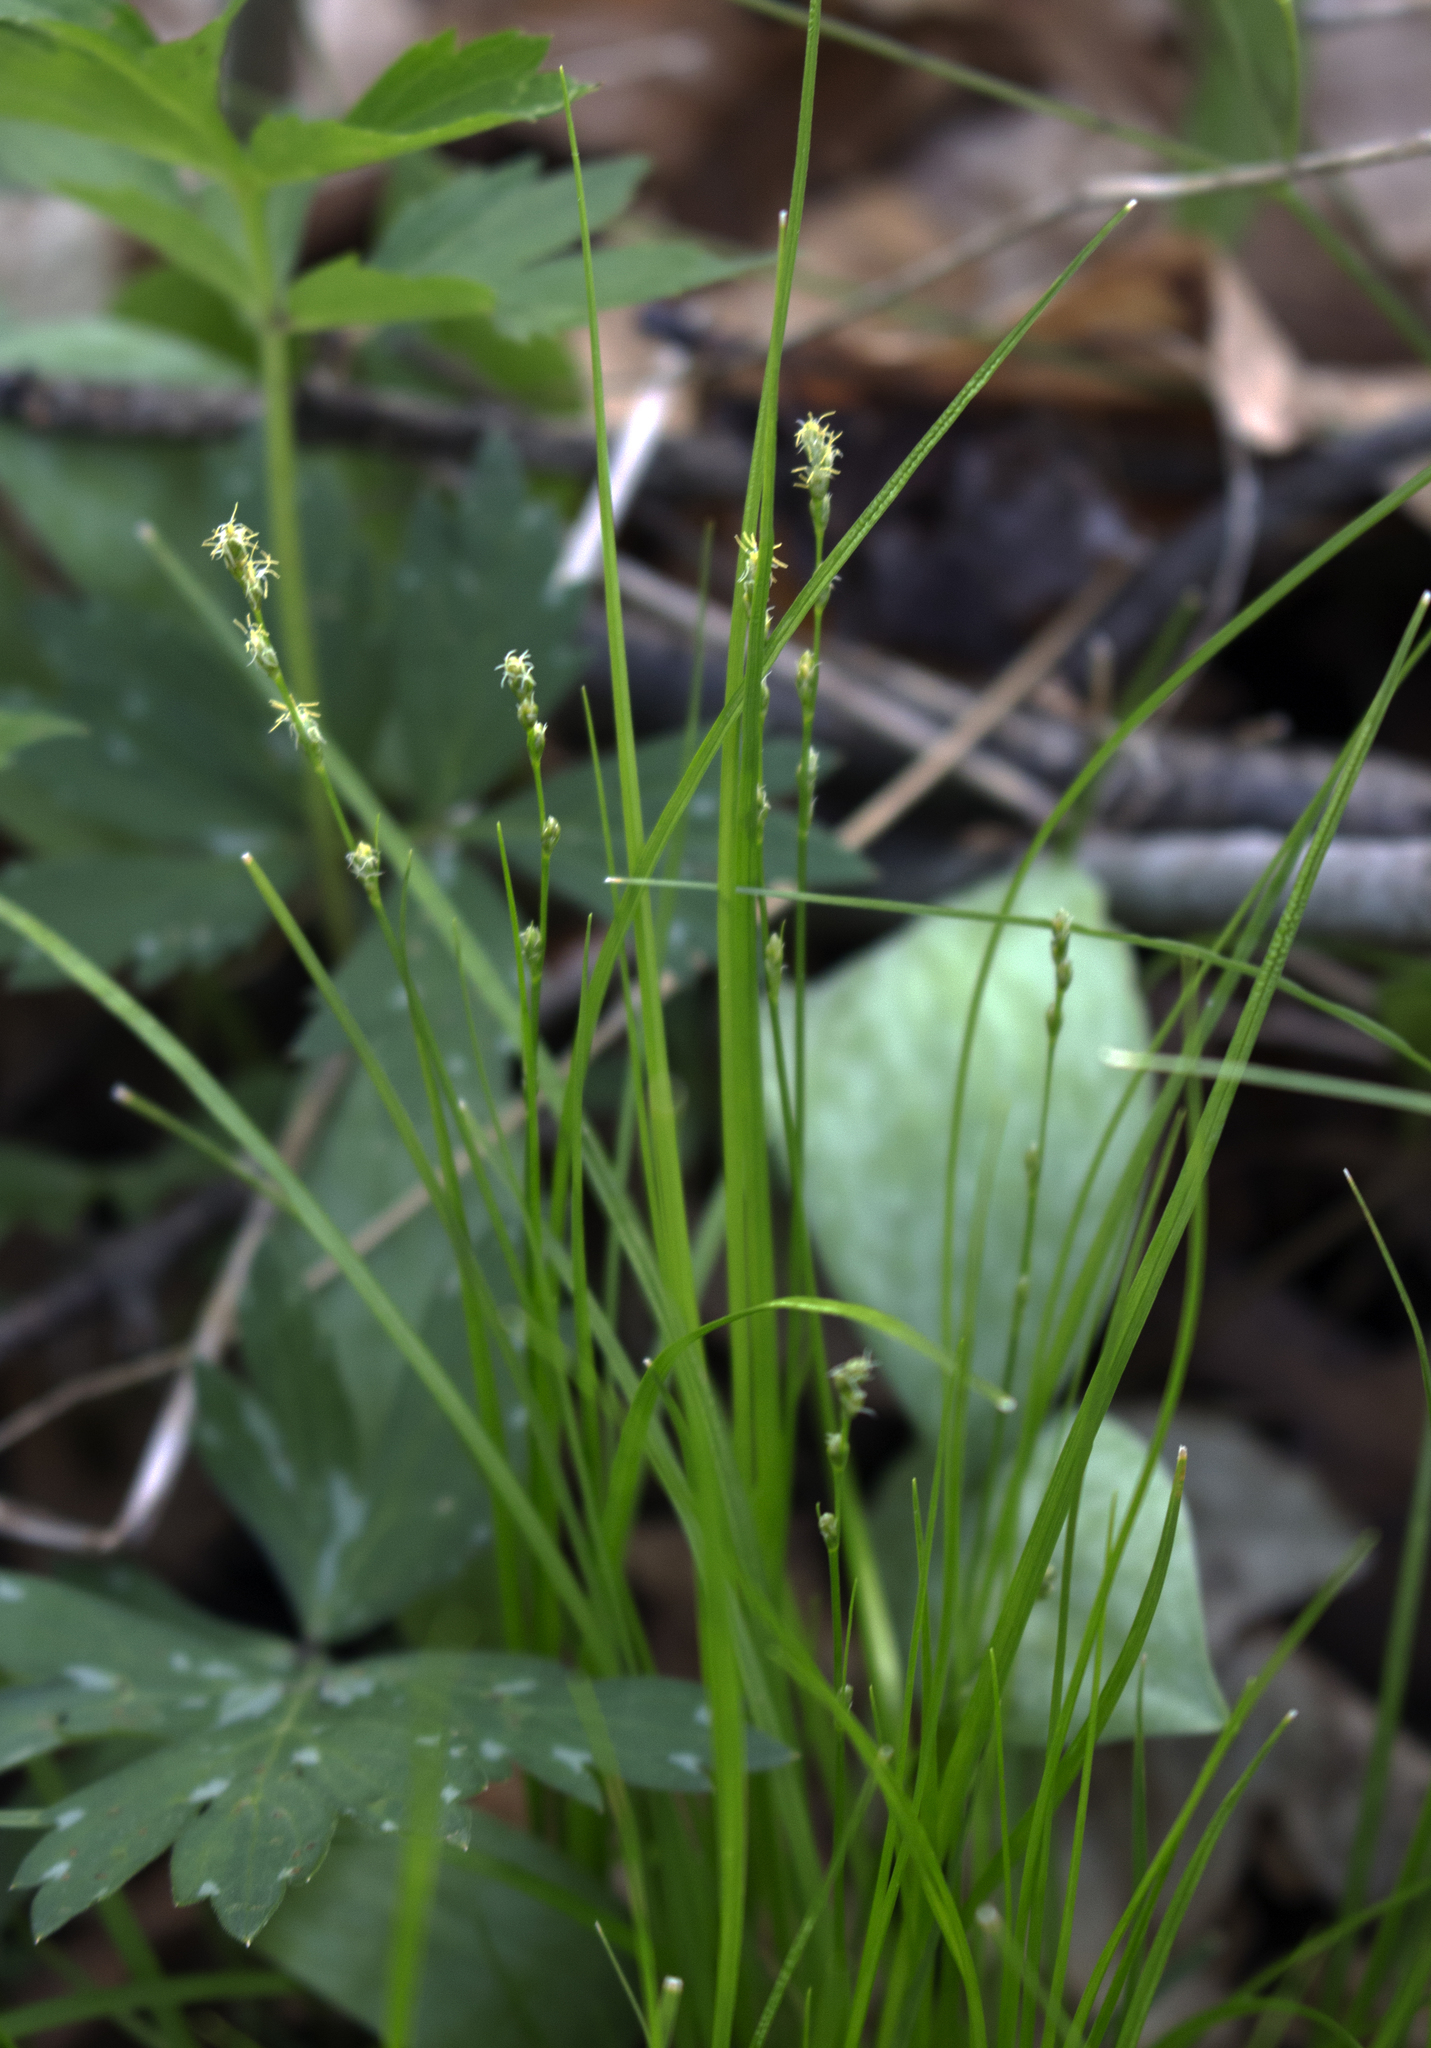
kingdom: Plantae
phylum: Tracheophyta
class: Liliopsida
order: Poales
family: Cyperaceae
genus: Carex
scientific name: Carex deweyana
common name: Dewey's sedge
